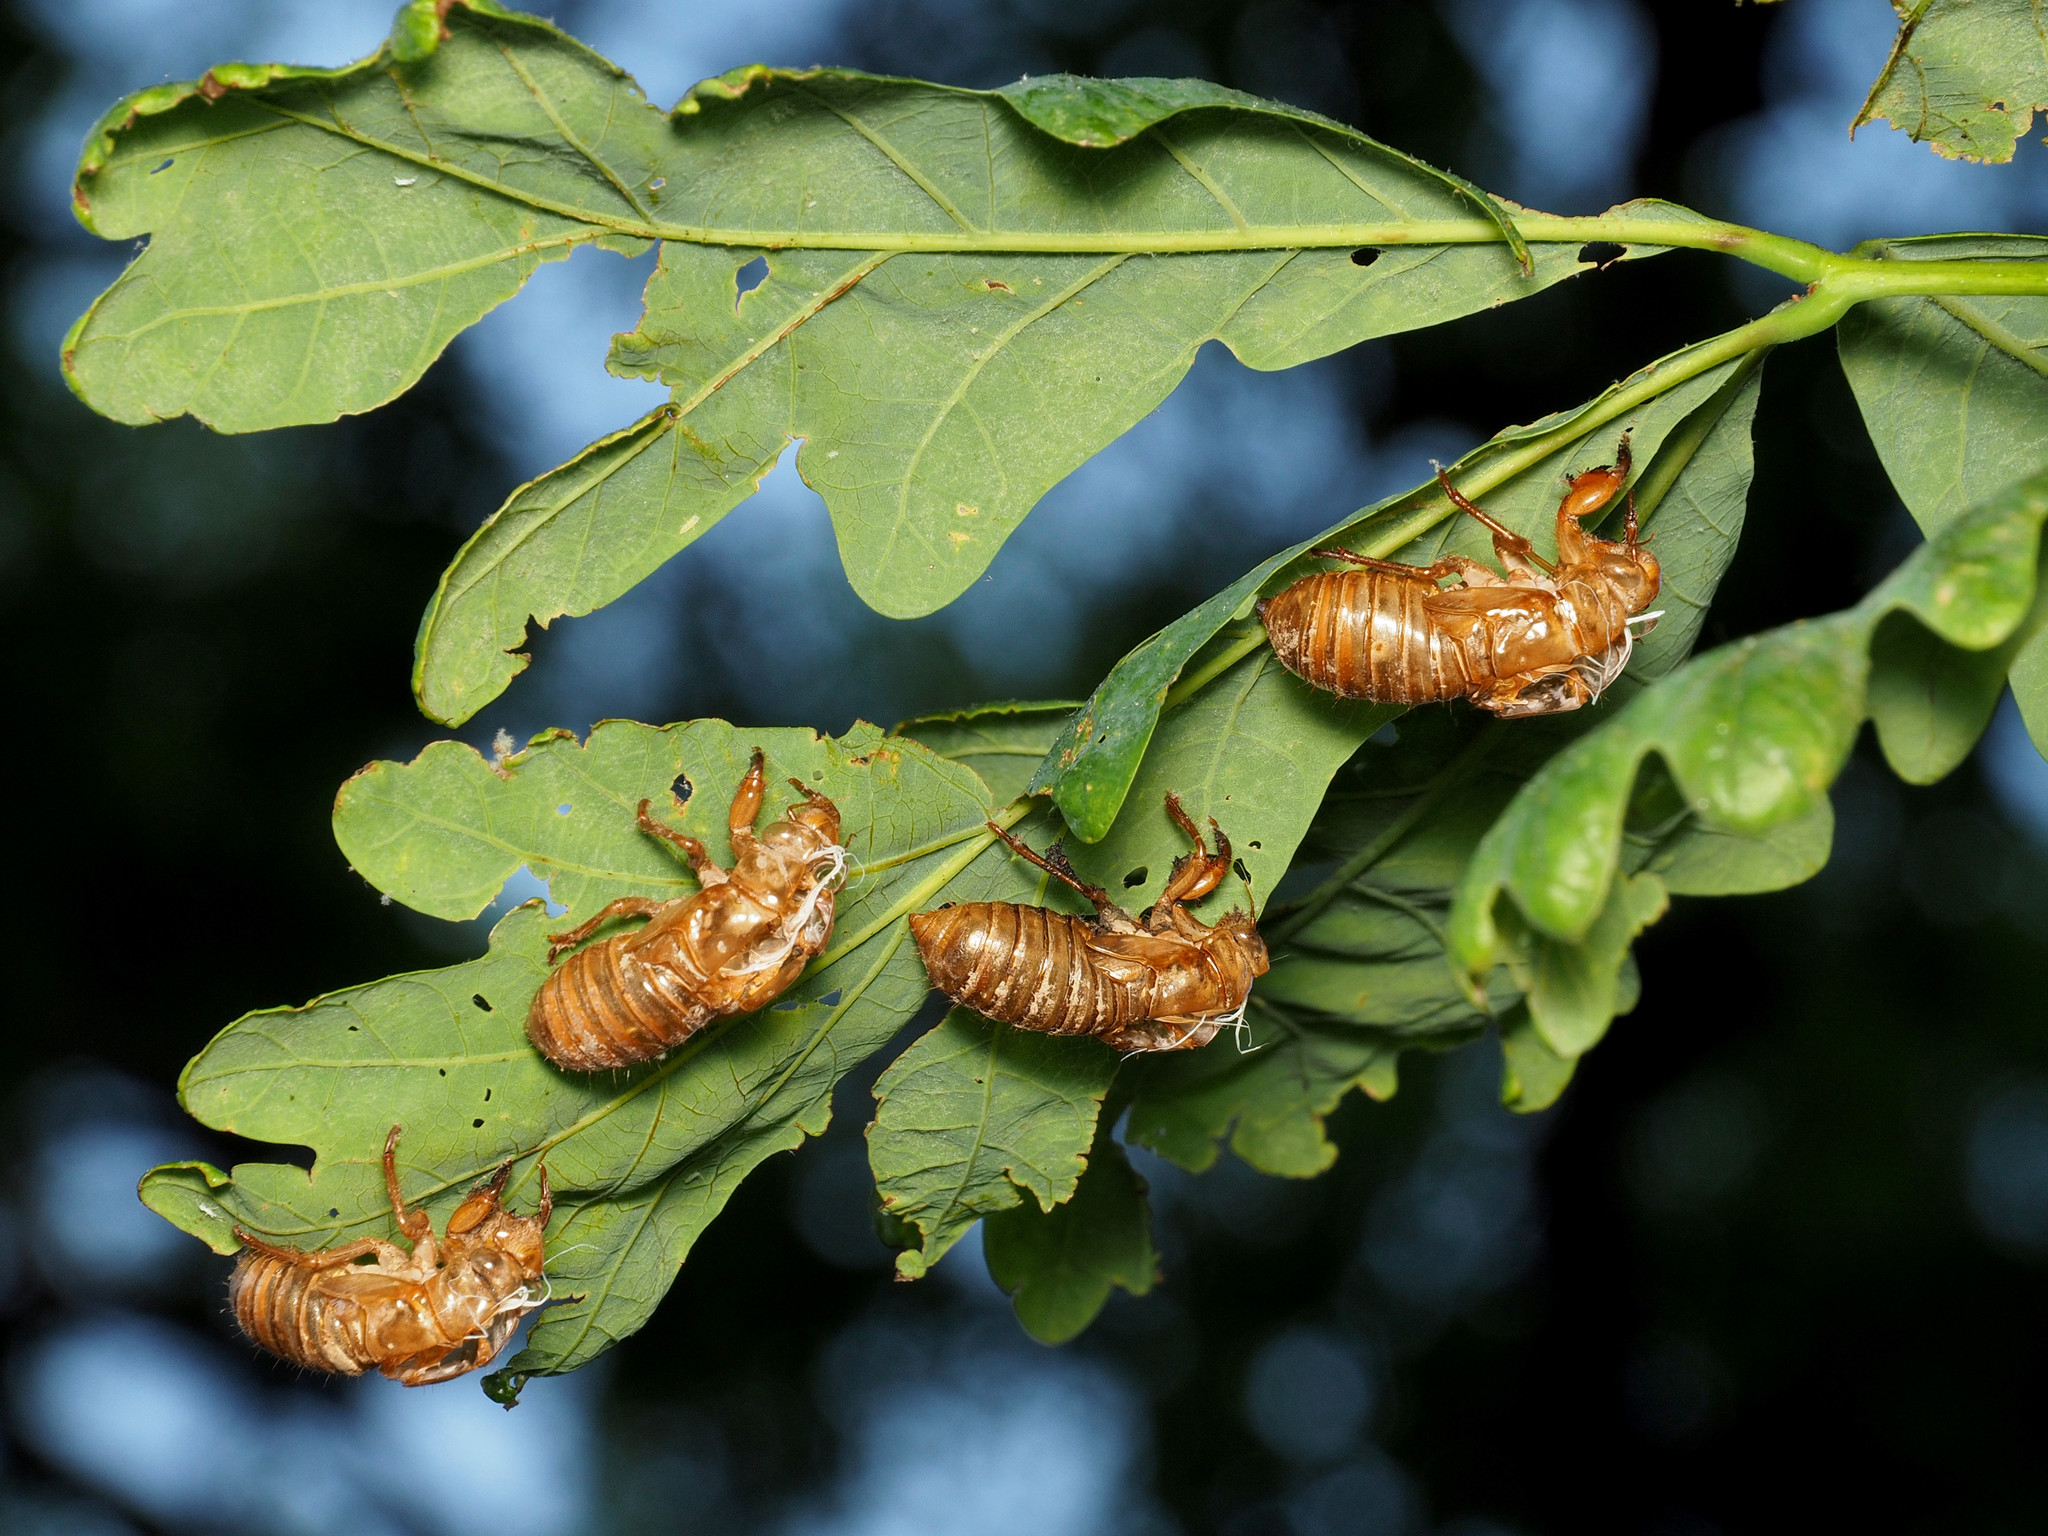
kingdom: Animalia
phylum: Arthropoda
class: Insecta
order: Hemiptera
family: Cicadidae
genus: Magicicada
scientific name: Magicicada
